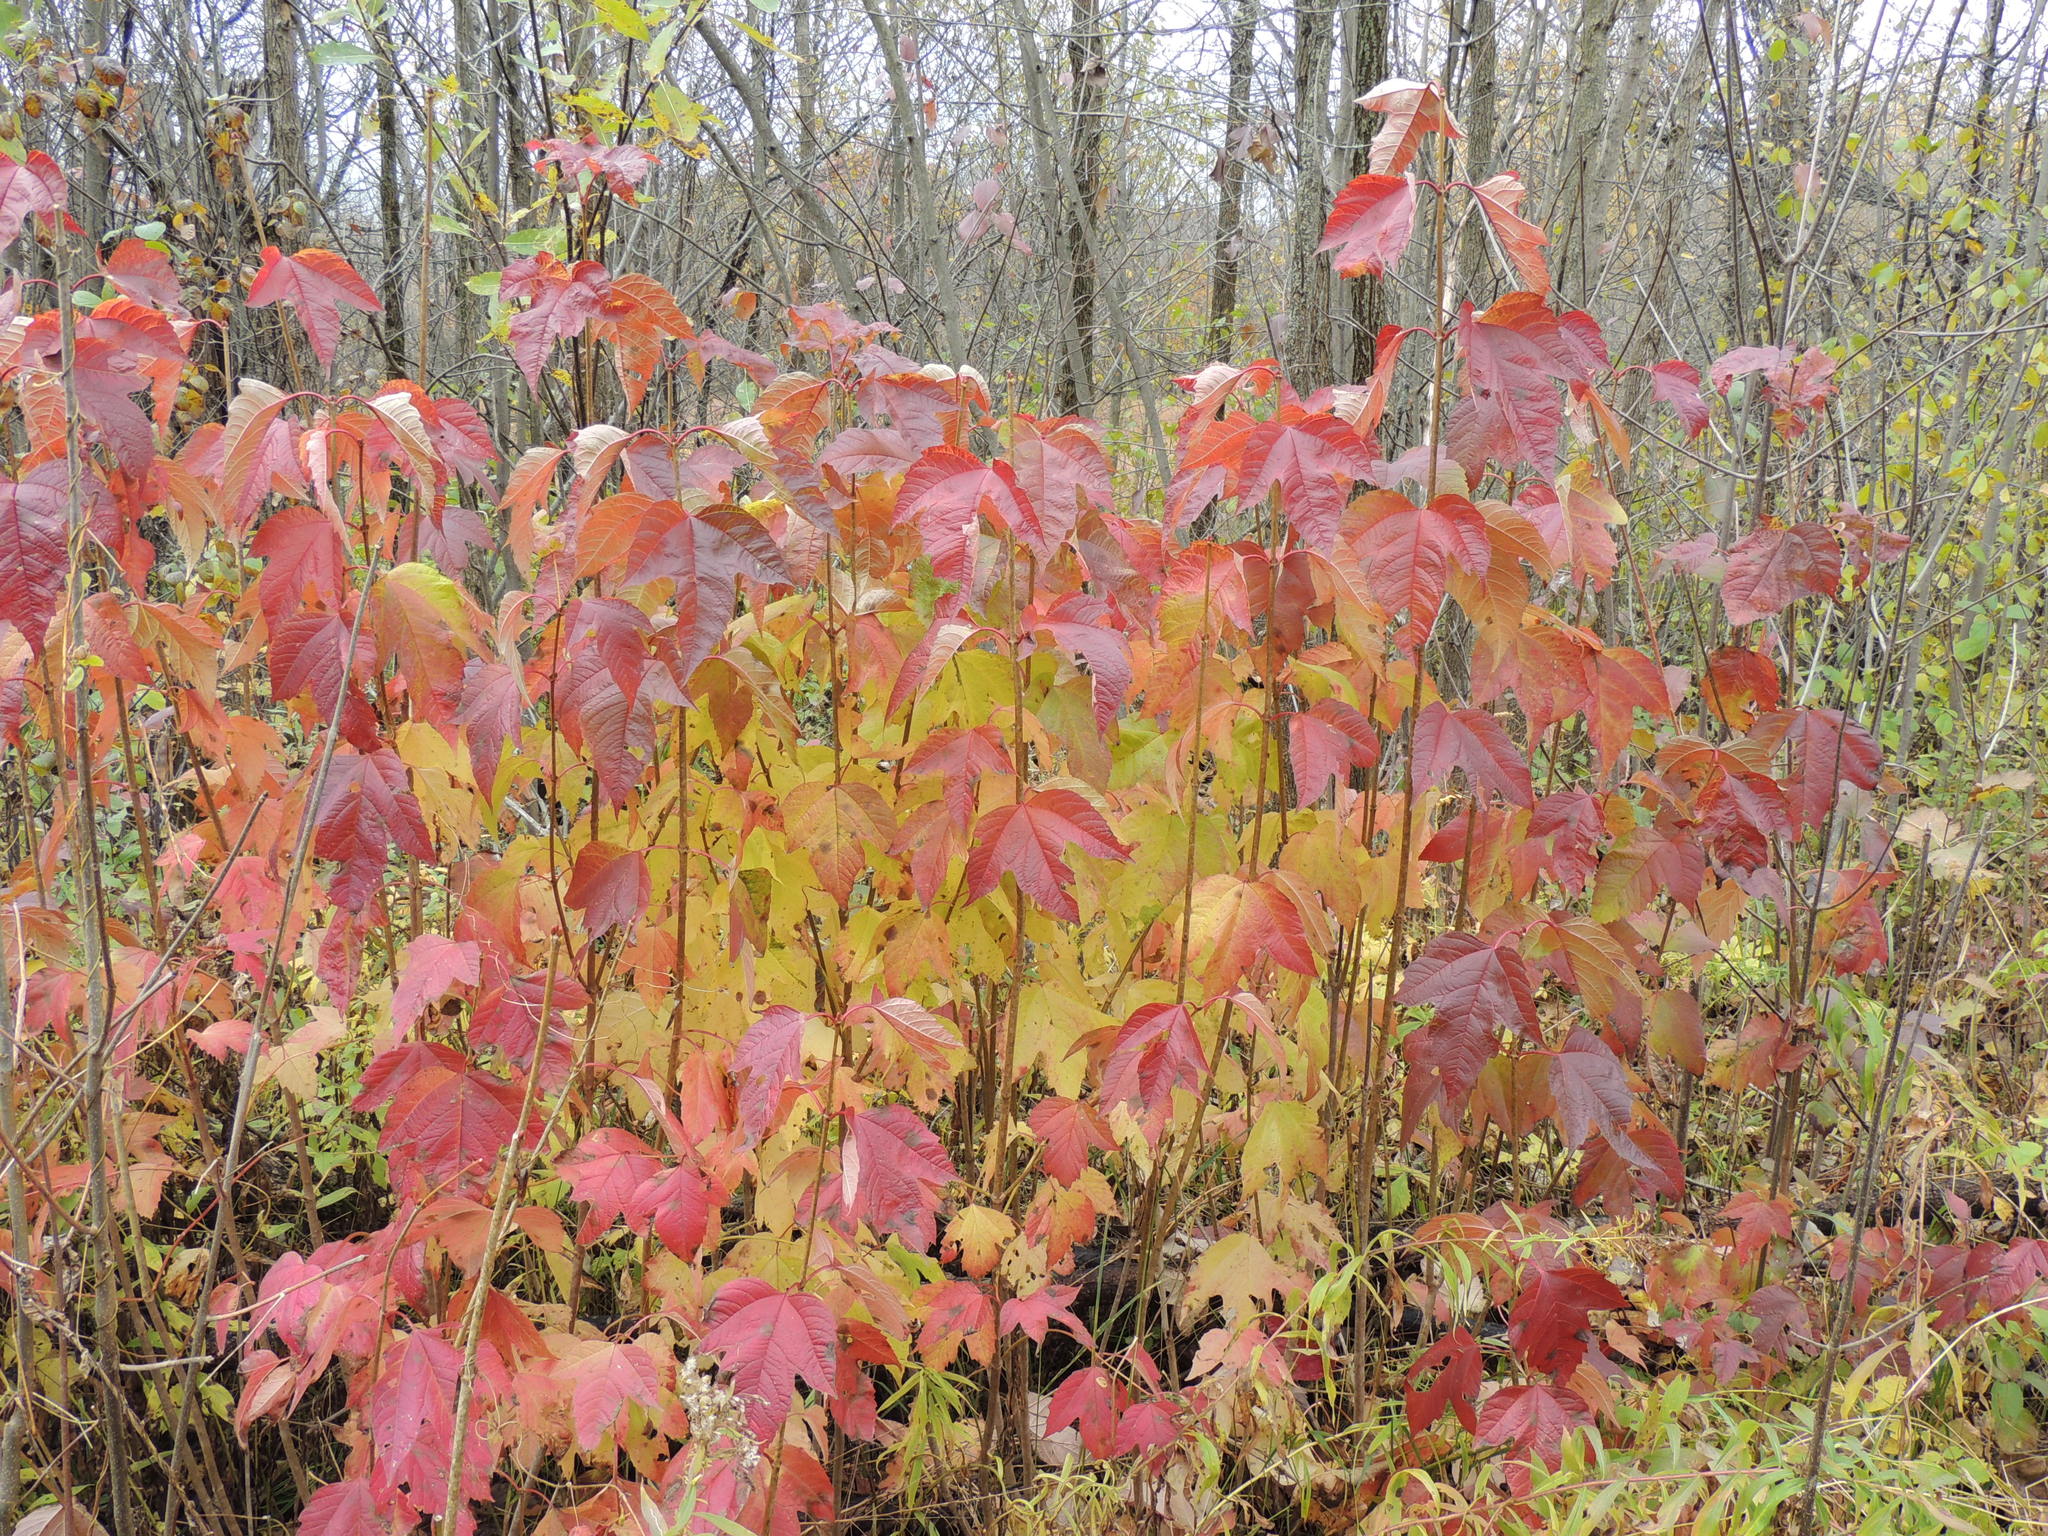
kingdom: Plantae
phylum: Tracheophyta
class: Magnoliopsida
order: Sapindales
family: Sapindaceae
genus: Acer
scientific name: Acer tataricum
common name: Tartar maple
